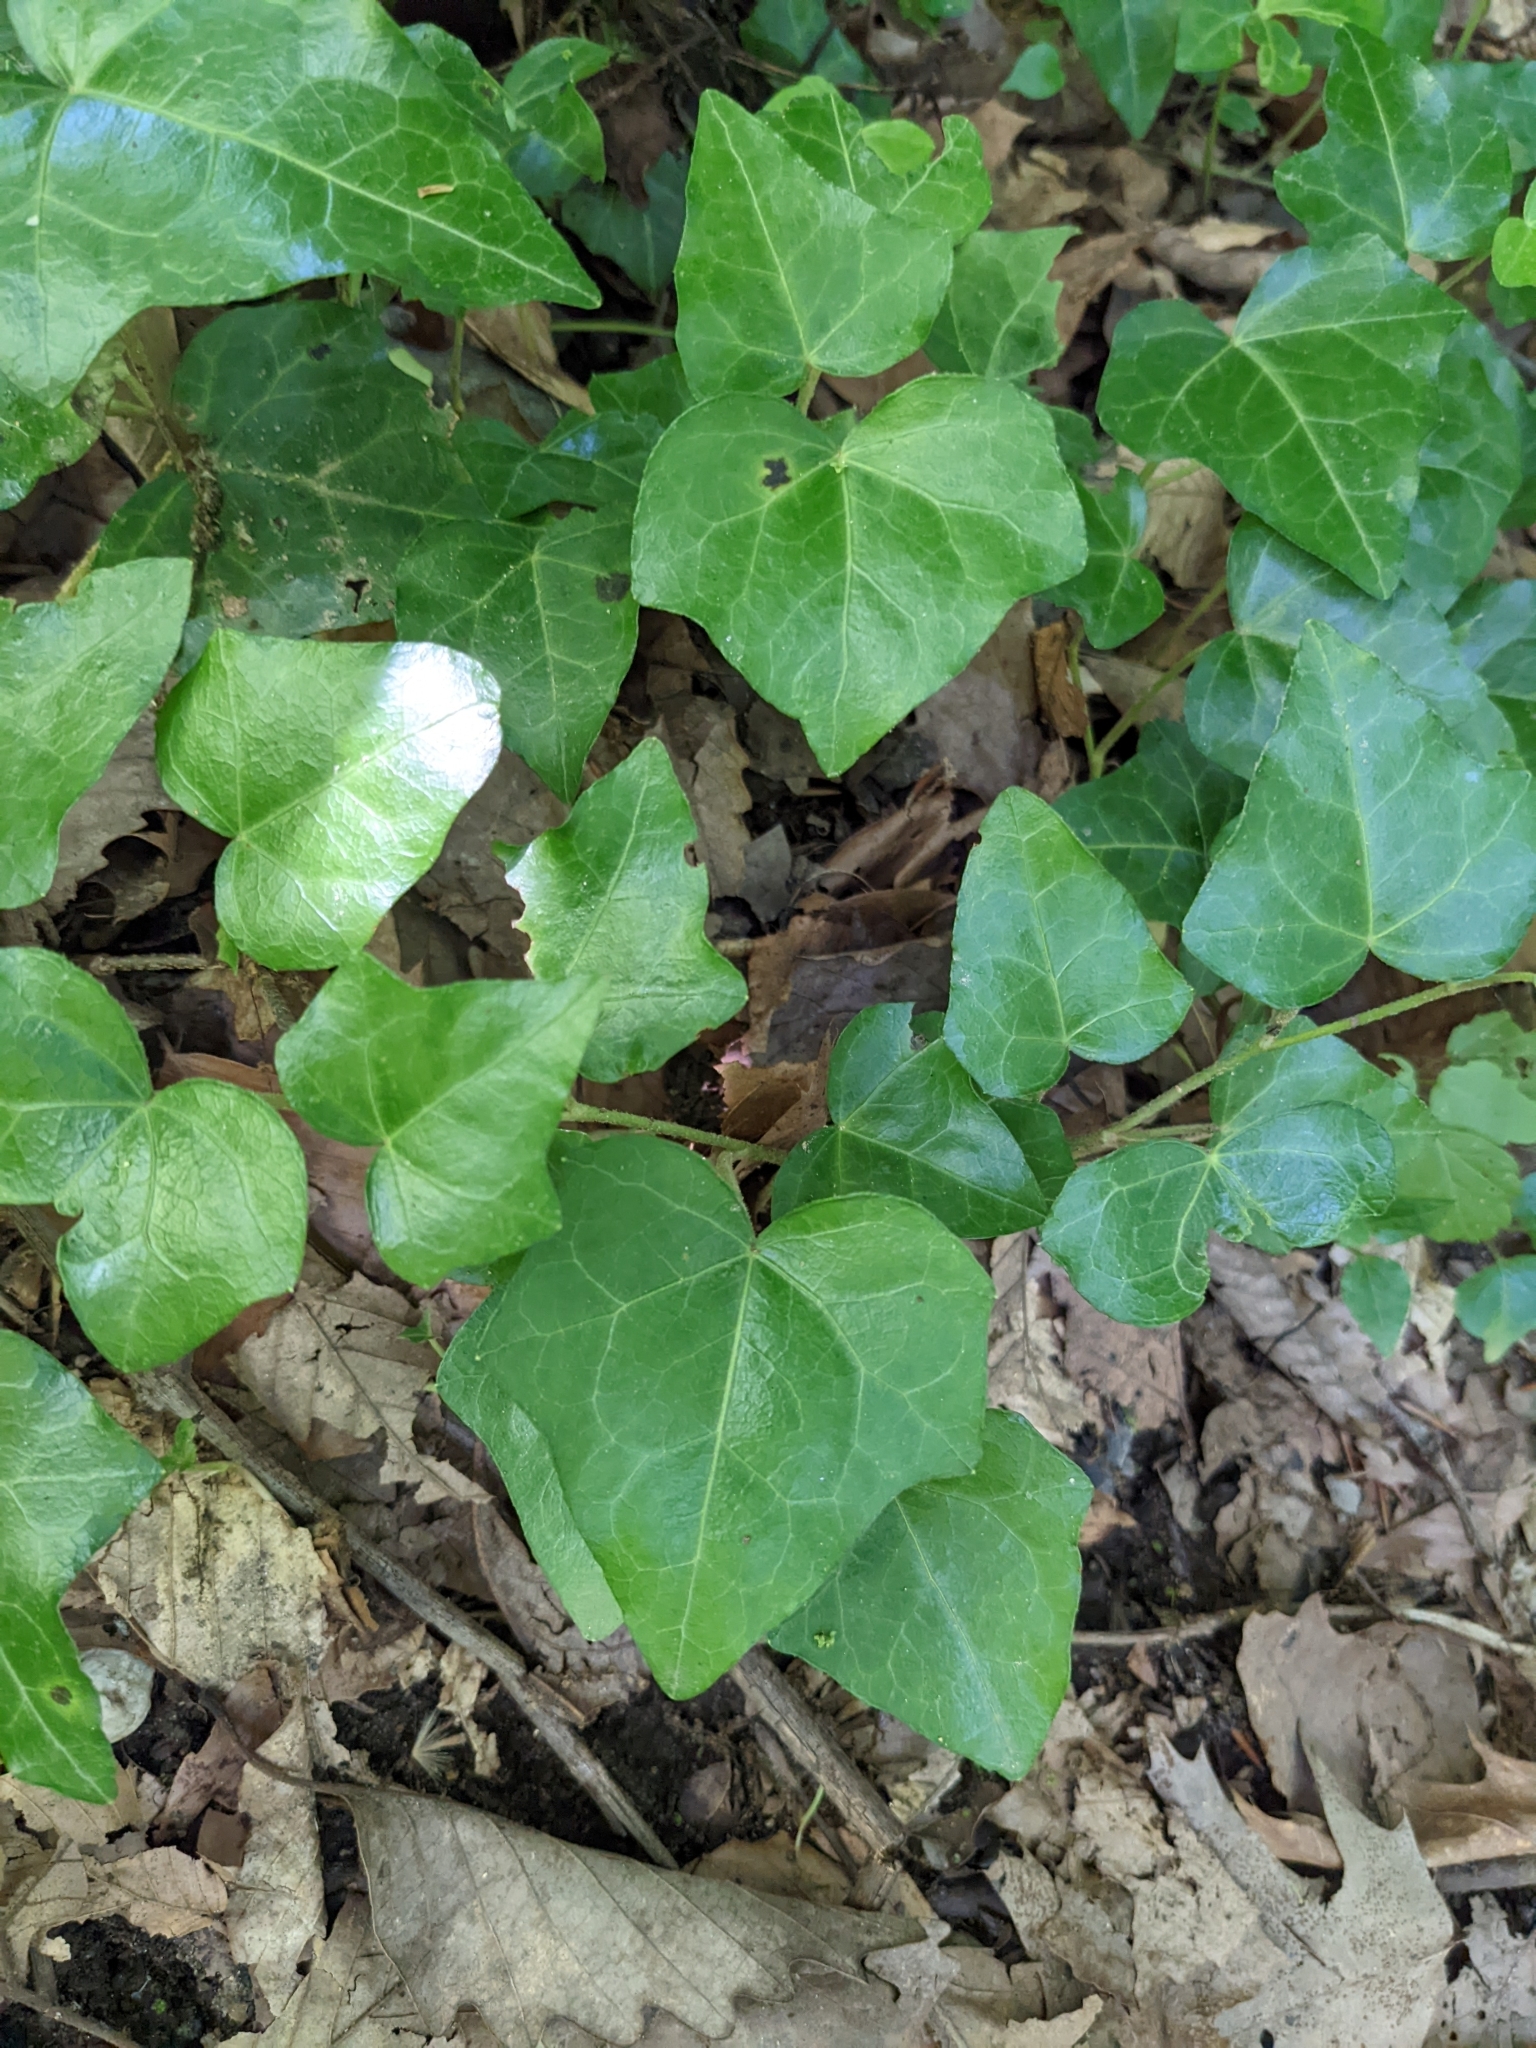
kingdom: Plantae
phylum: Tracheophyta
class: Magnoliopsida
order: Apiales
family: Araliaceae
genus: Hedera
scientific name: Hedera helix
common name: Ivy
